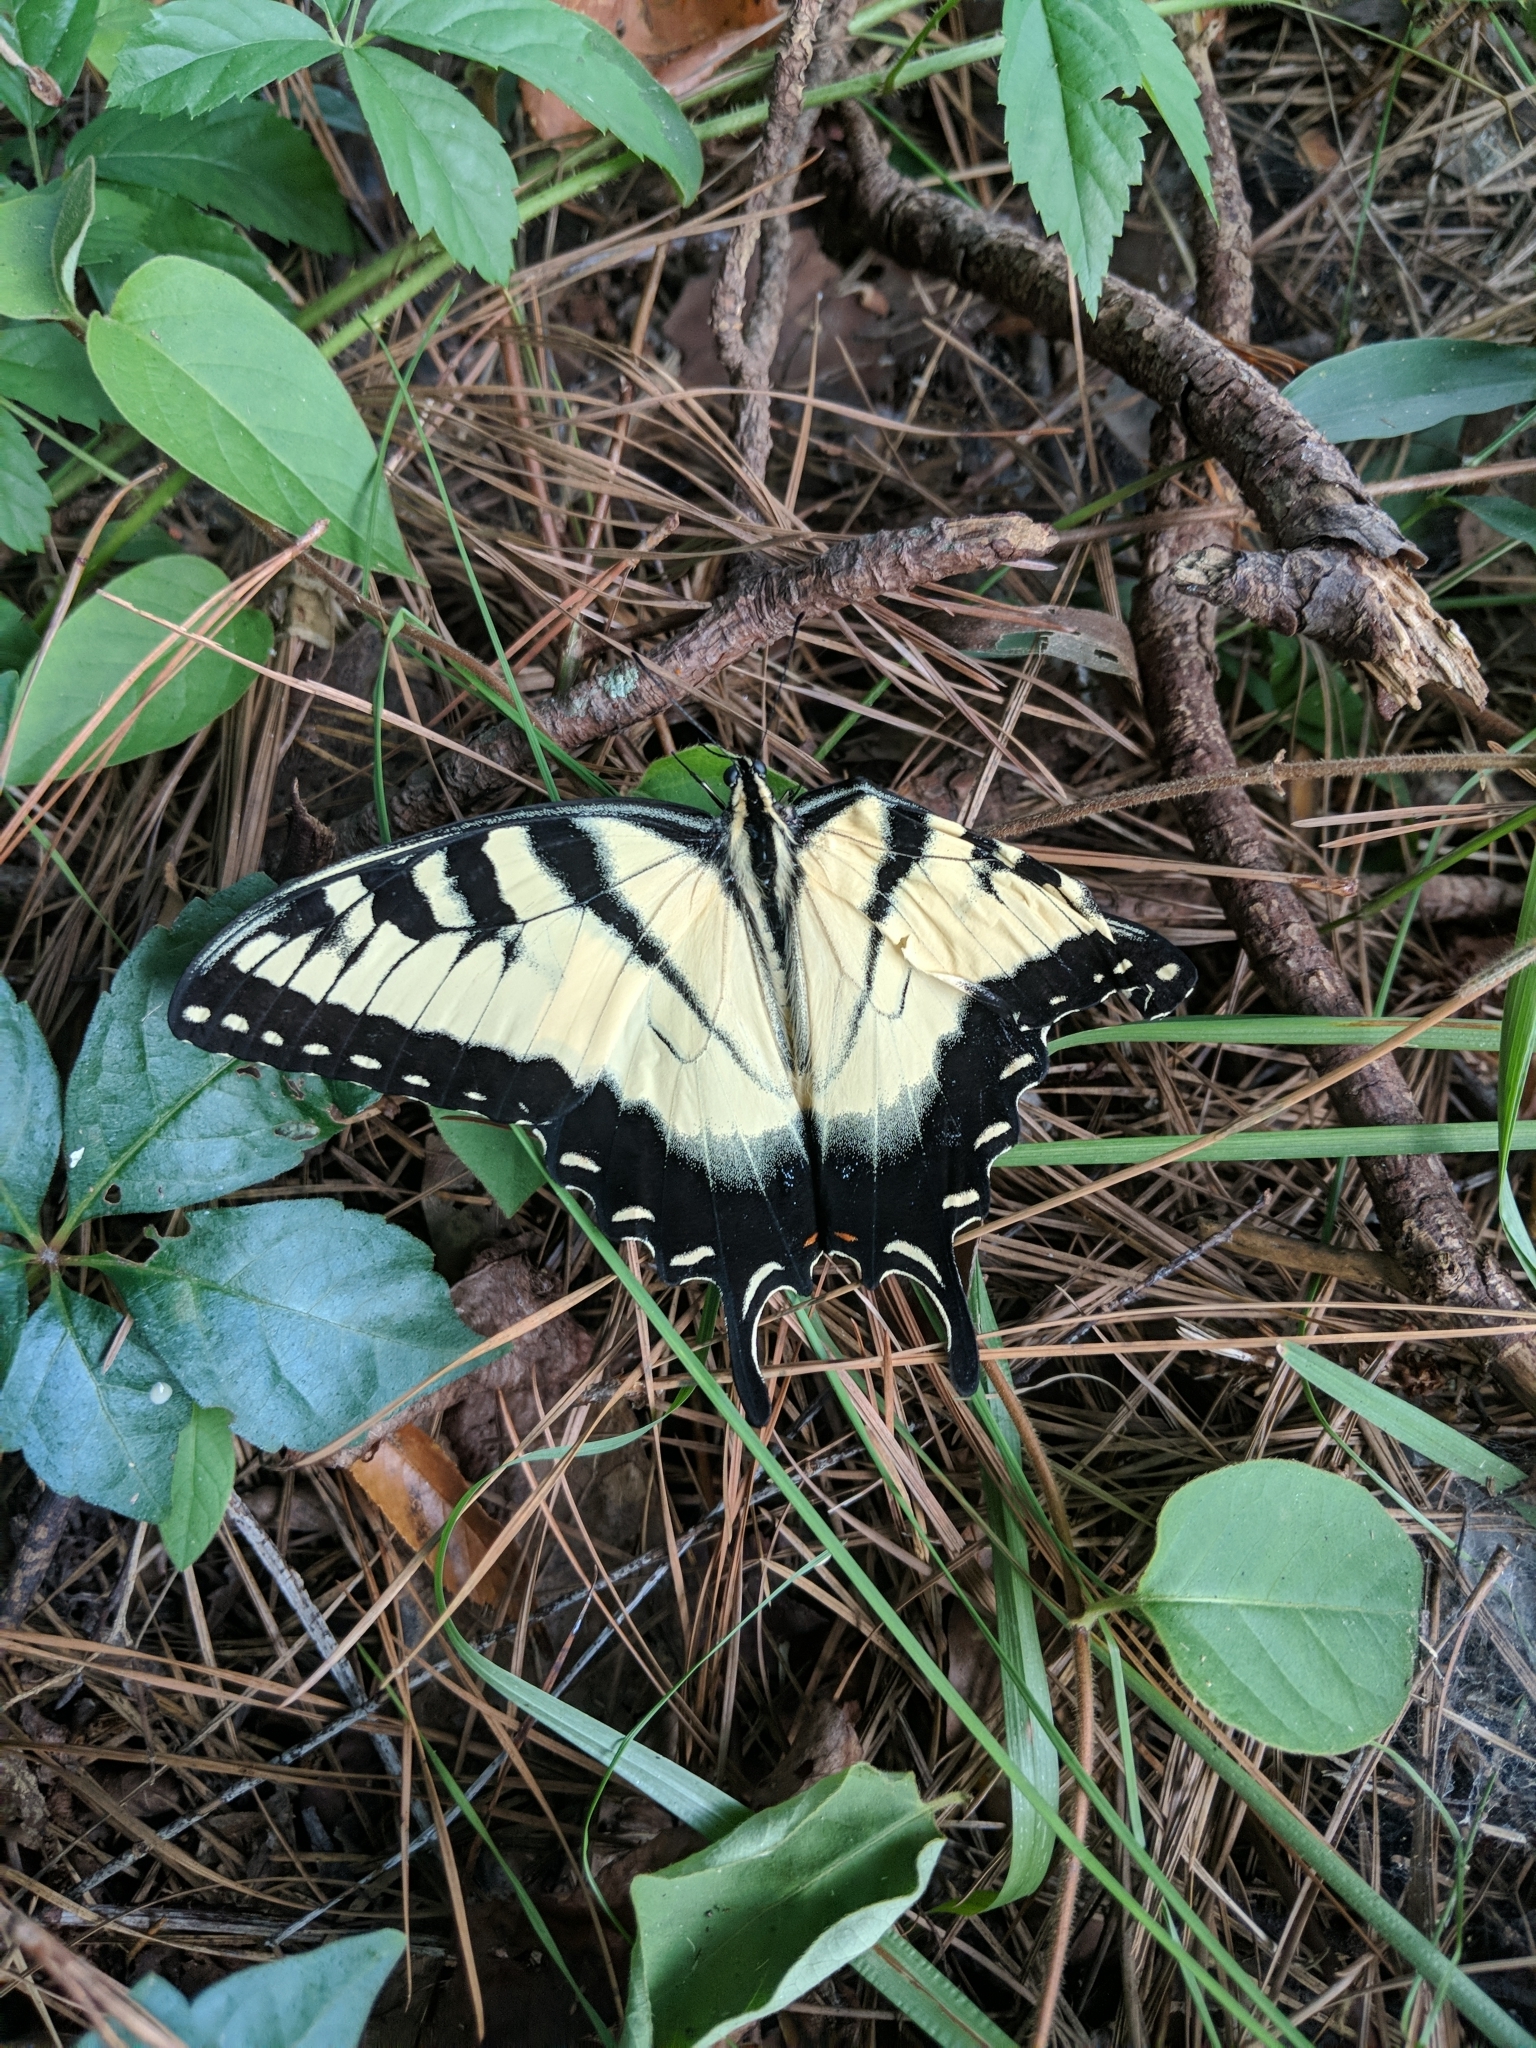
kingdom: Animalia
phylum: Arthropoda
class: Insecta
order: Lepidoptera
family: Papilionidae
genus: Papilio
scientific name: Papilio glaucus
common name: Tiger swallowtail
